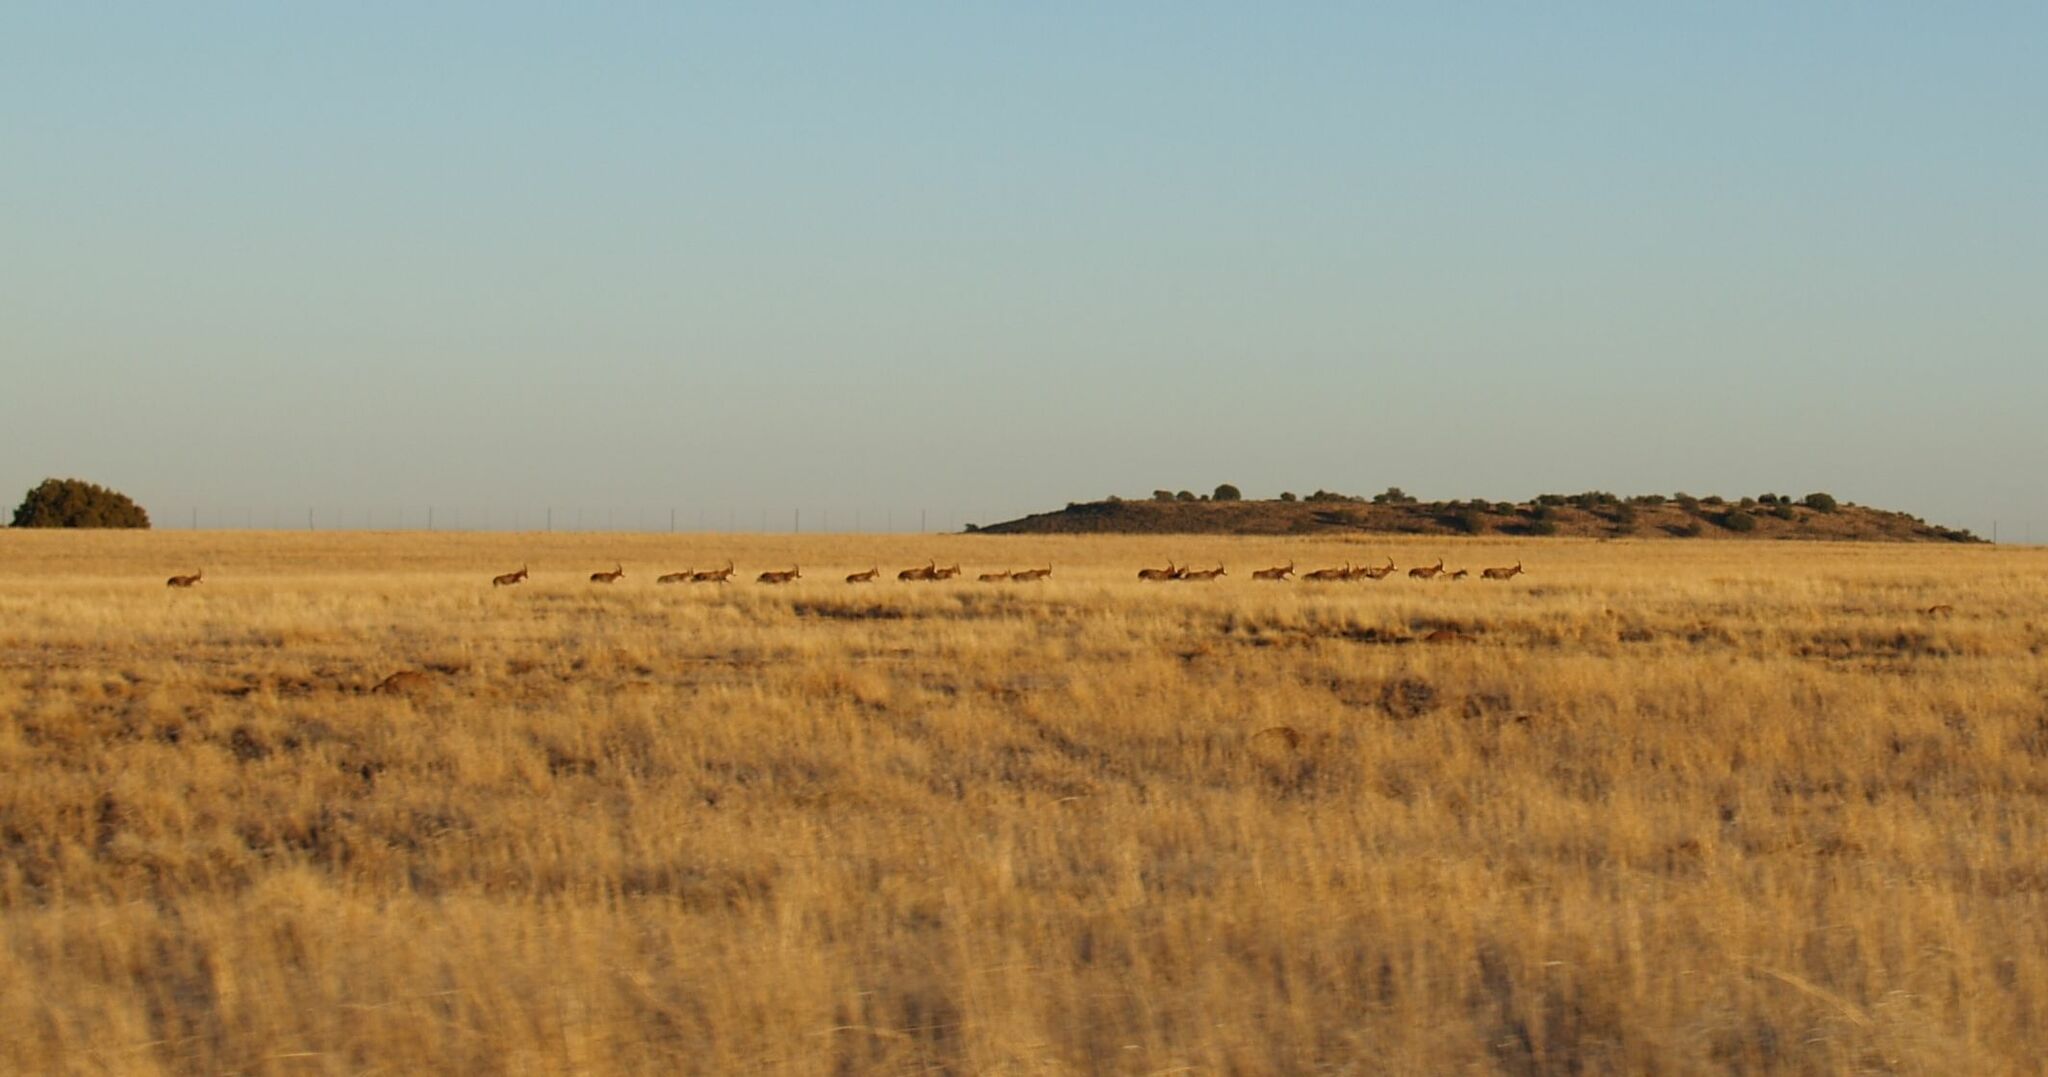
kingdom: Animalia
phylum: Chordata
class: Mammalia
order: Artiodactyla
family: Bovidae
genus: Damaliscus
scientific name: Damaliscus pygargus
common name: Bontebok
